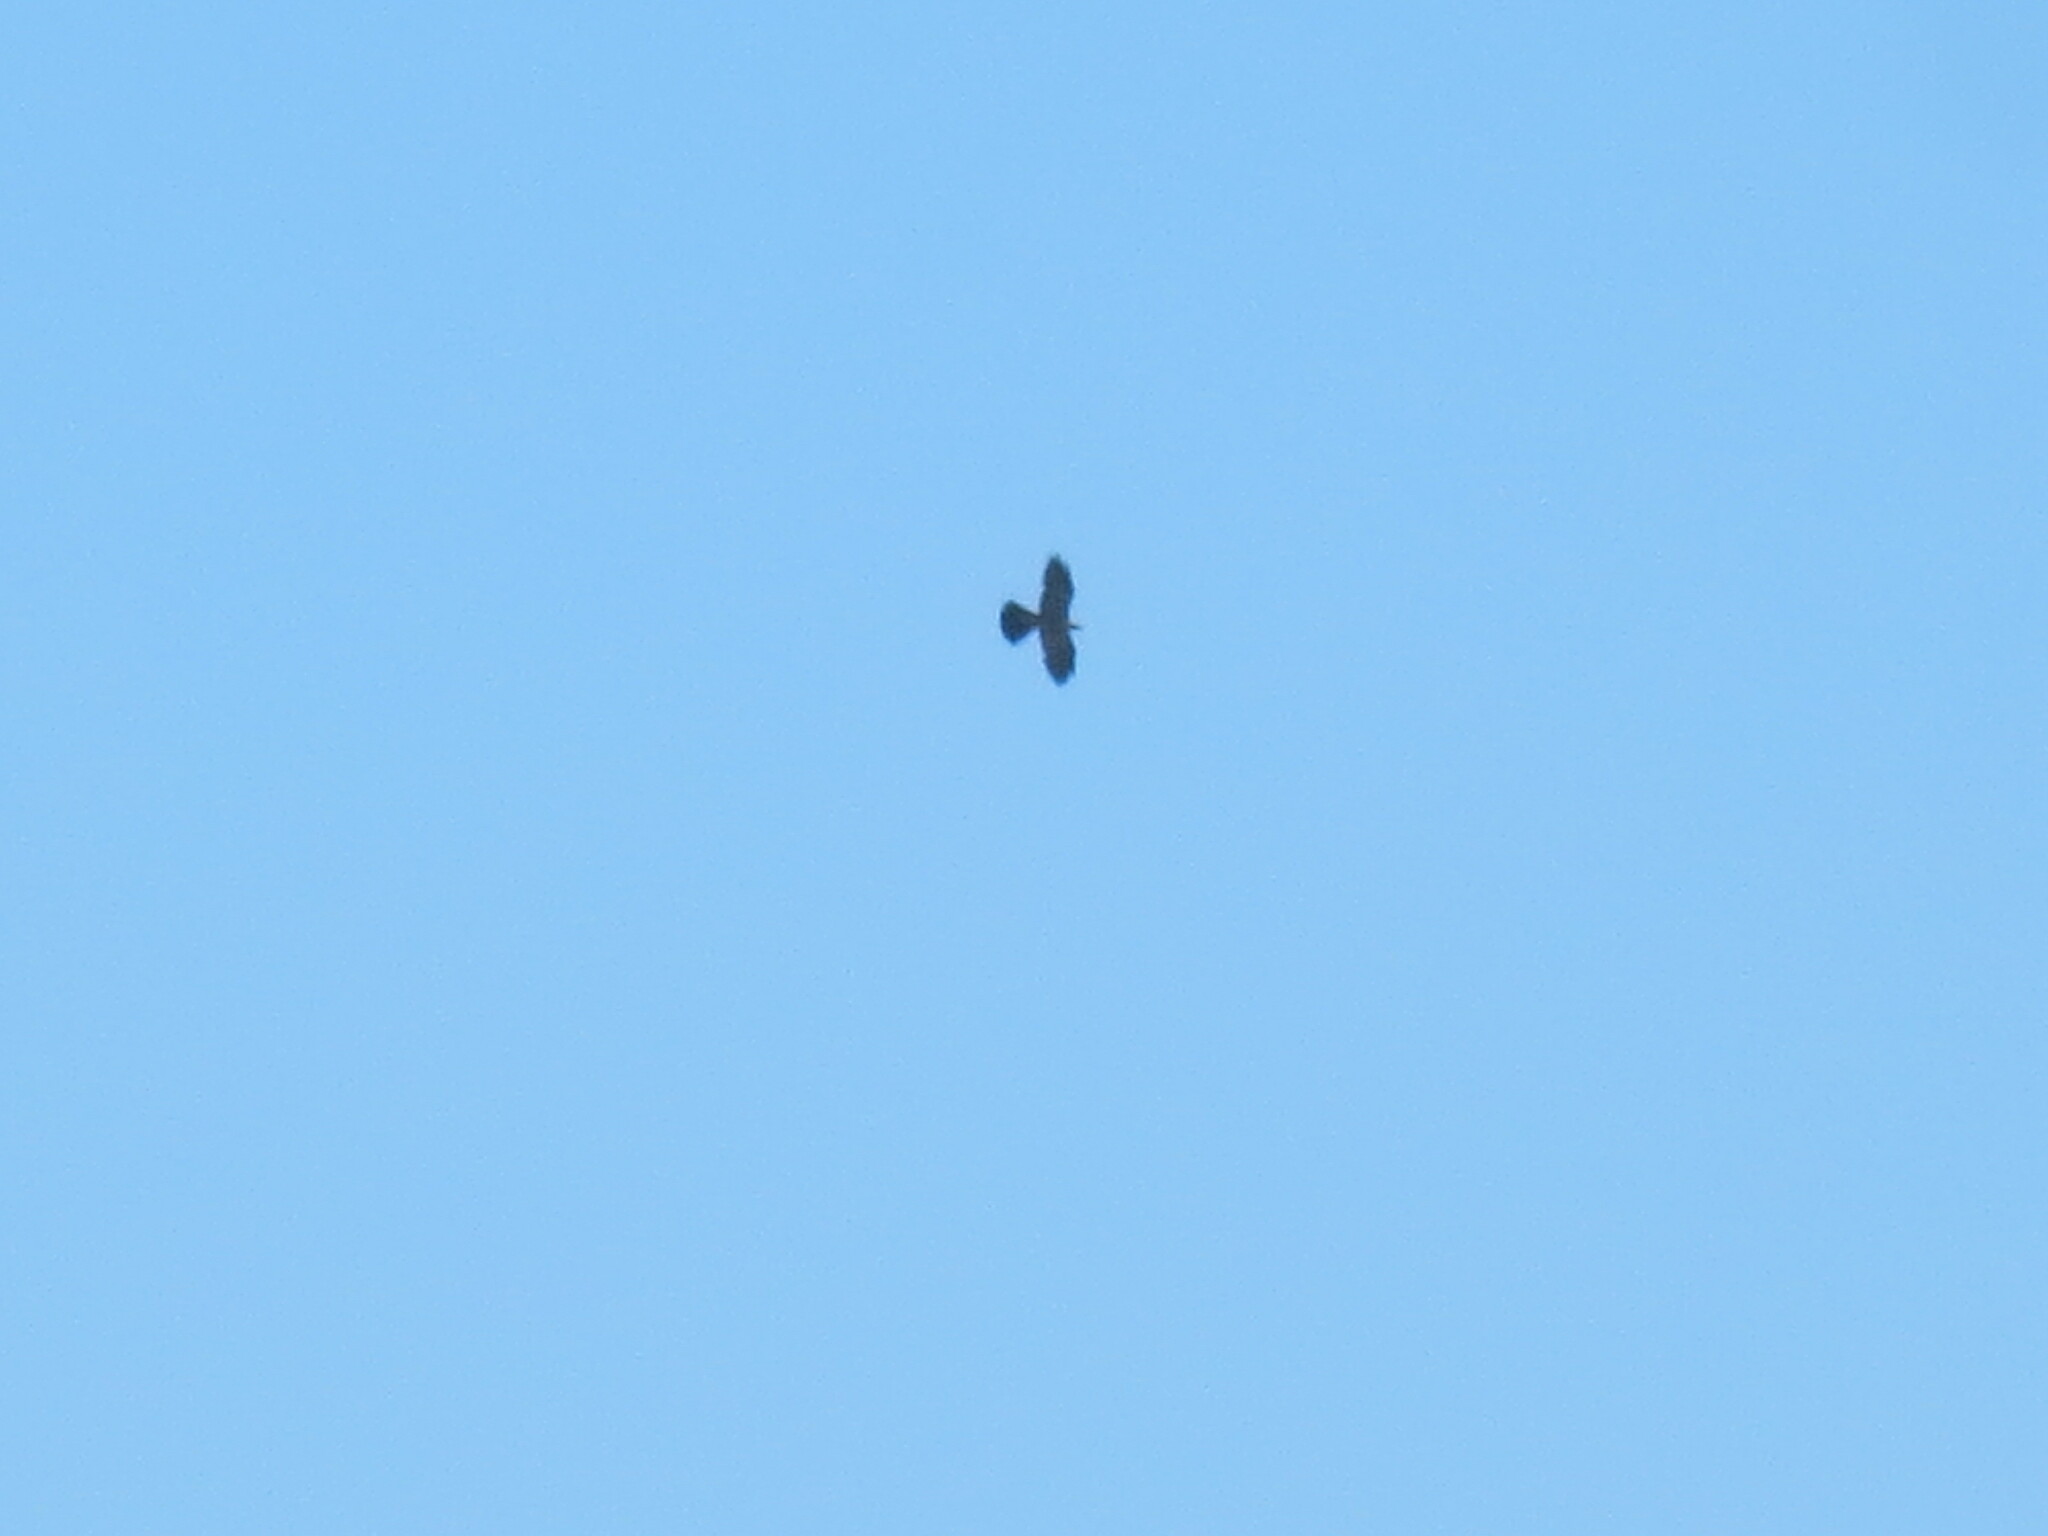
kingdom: Animalia
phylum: Chordata
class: Aves
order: Accipitriformes
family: Accipitridae
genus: Ictinia
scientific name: Ictinia mississippiensis
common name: Mississippi kite
